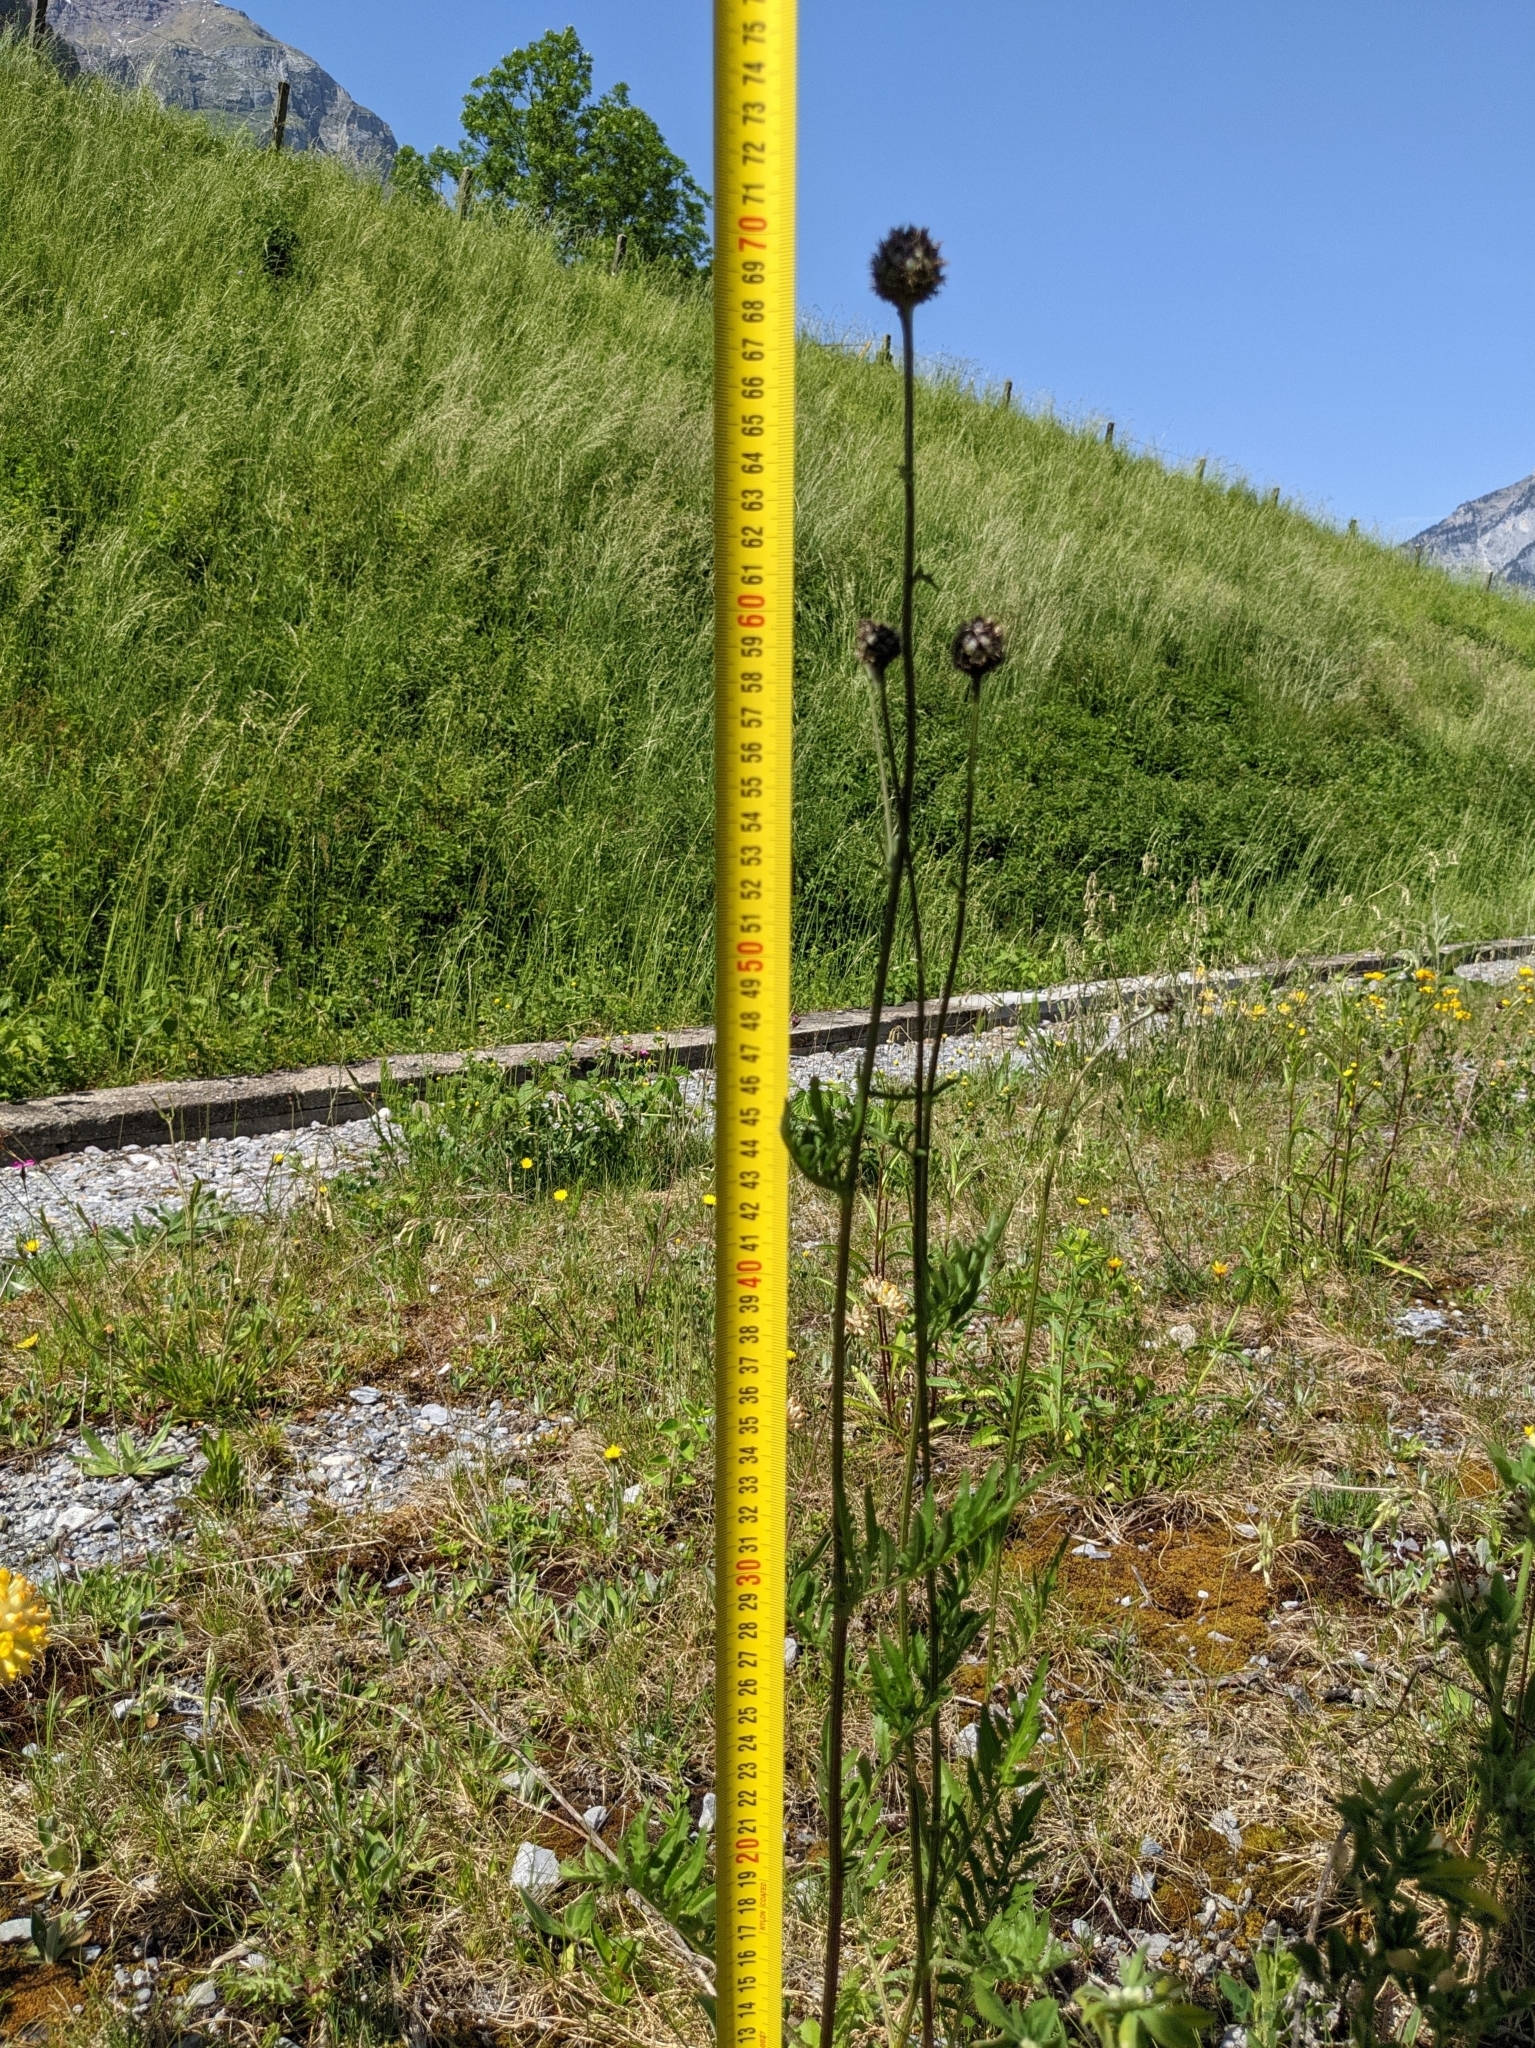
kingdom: Plantae
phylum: Tracheophyta
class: Magnoliopsida
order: Asterales
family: Asteraceae
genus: Centaurea
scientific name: Centaurea scabiosa
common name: Greater knapweed
